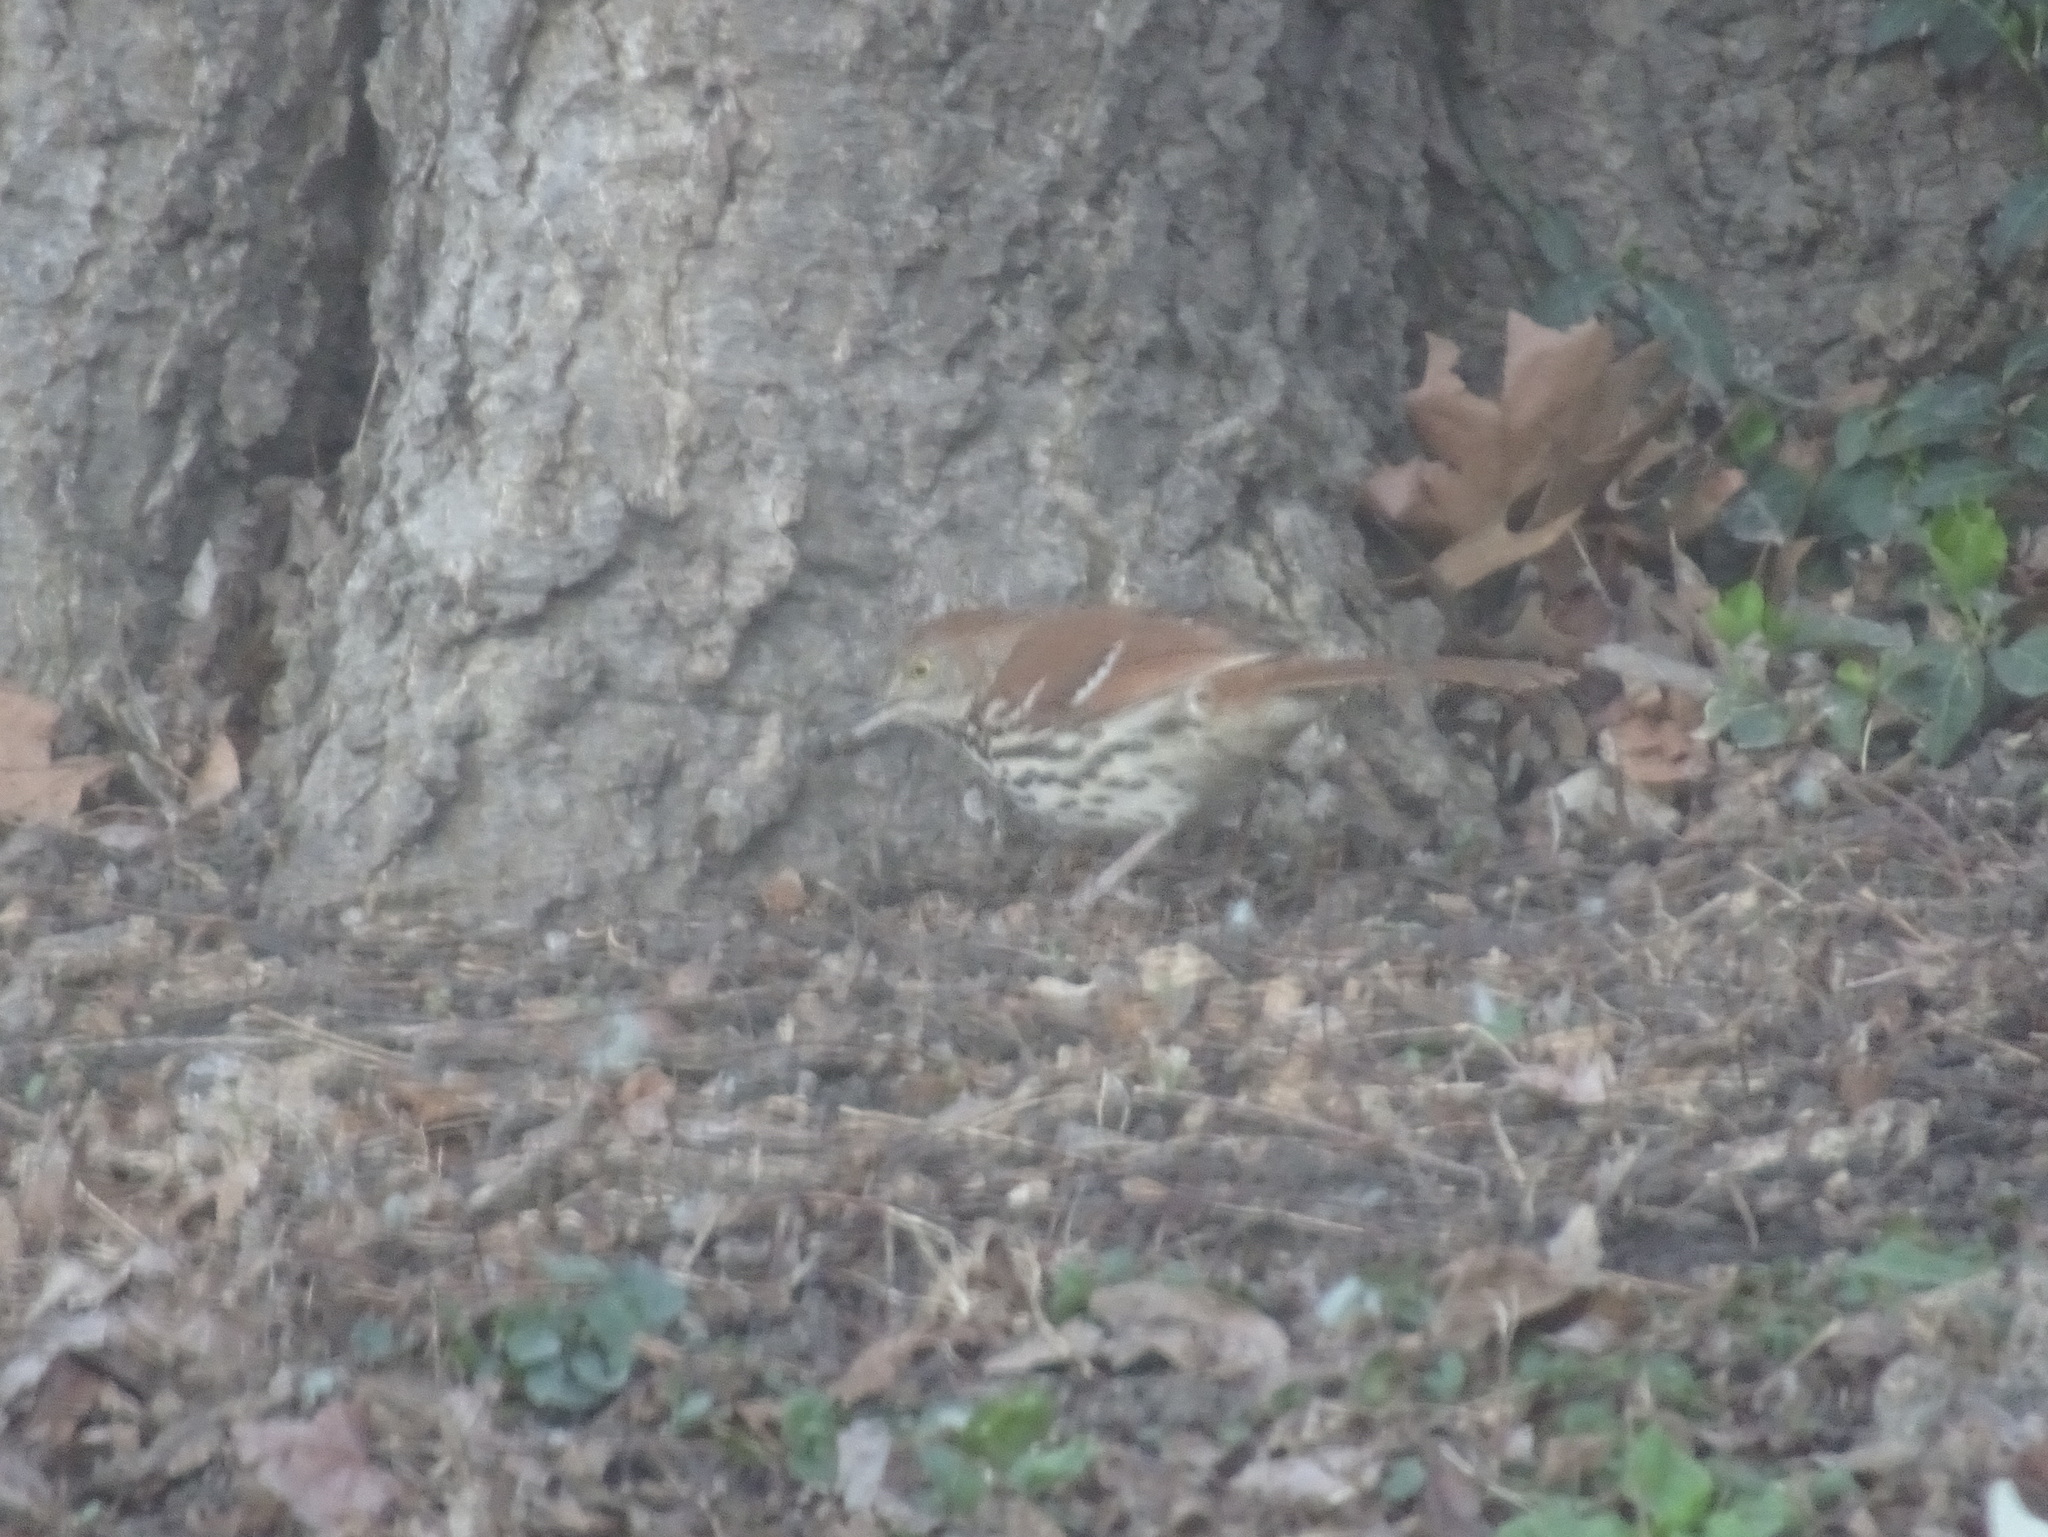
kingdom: Animalia
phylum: Chordata
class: Aves
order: Passeriformes
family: Mimidae
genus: Toxostoma
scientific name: Toxostoma rufum
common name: Brown thrasher
